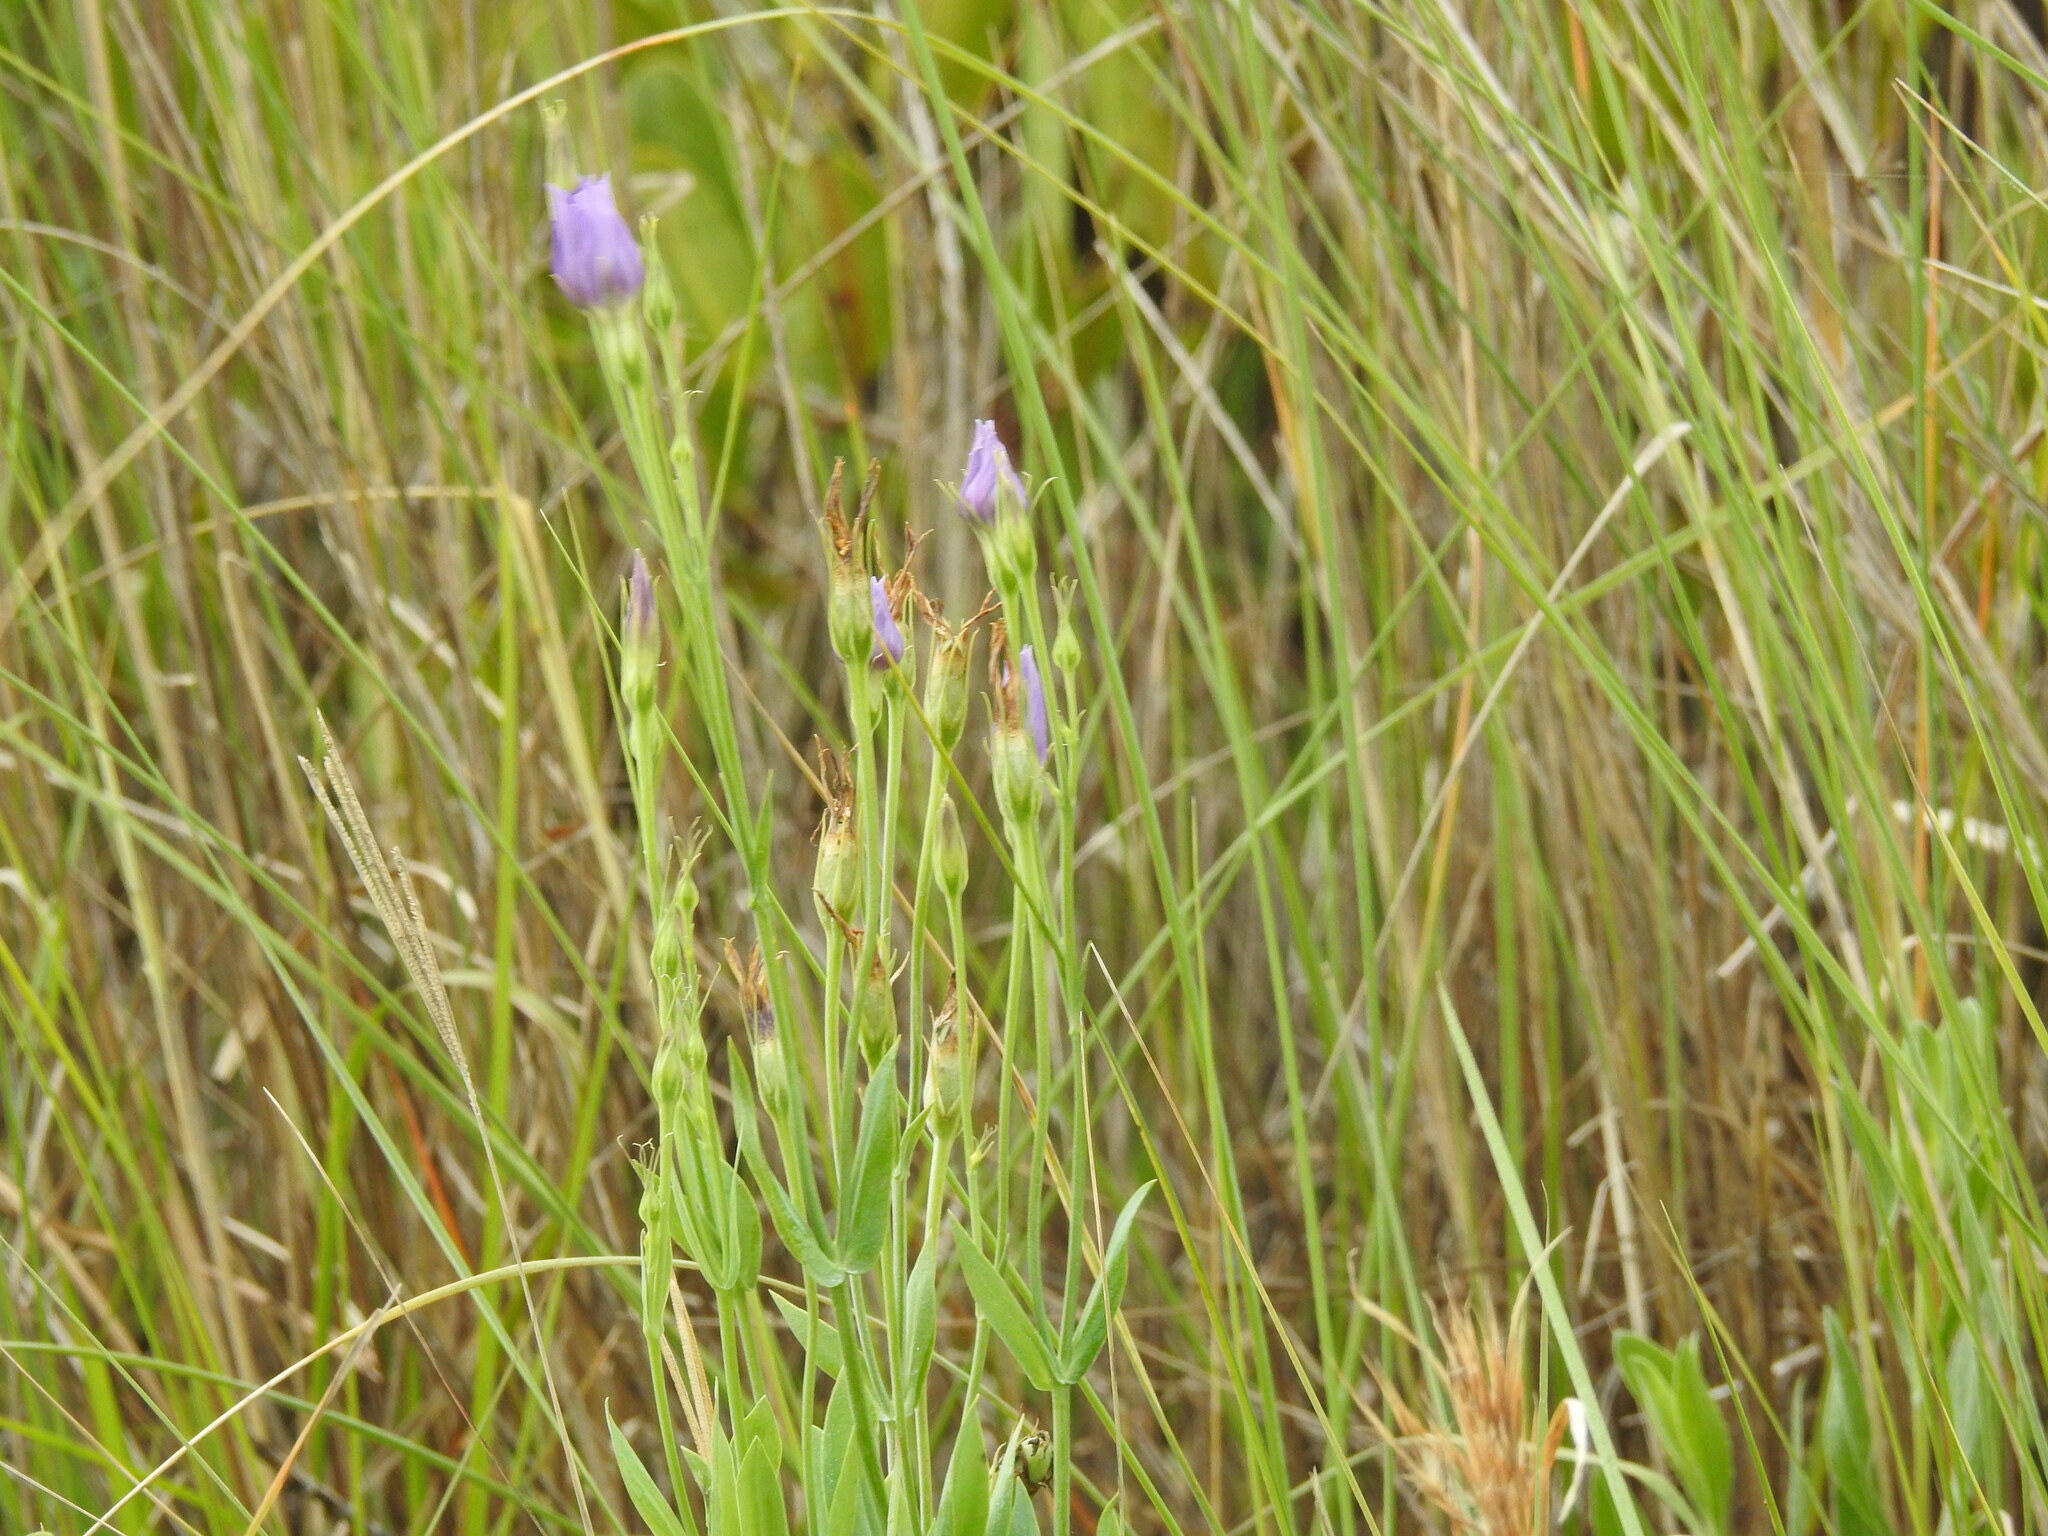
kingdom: Plantae
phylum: Tracheophyta
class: Magnoliopsida
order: Gentianales
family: Gentianaceae
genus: Eustoma
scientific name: Eustoma exaltatum
